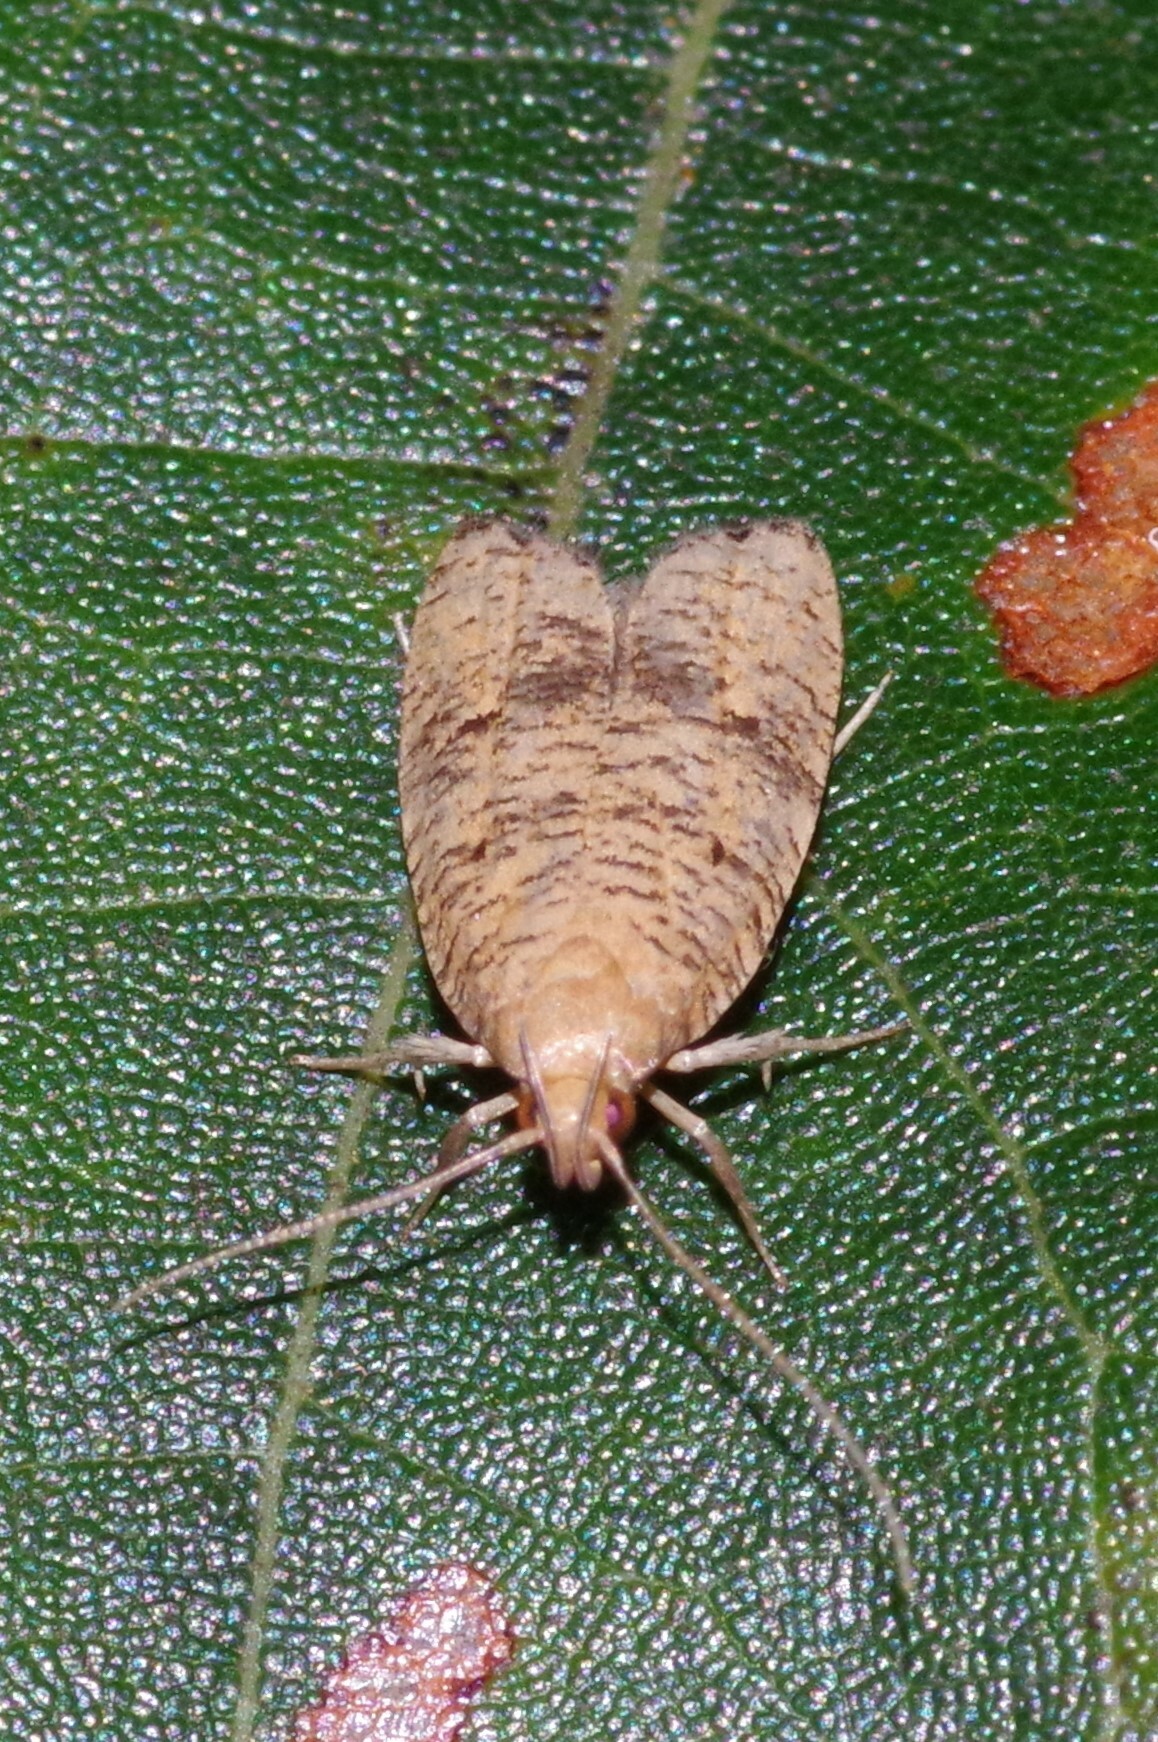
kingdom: Animalia
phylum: Arthropoda
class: Insecta
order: Lepidoptera
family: Depressariidae
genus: Psilocorsis
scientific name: Psilocorsis quercicella
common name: Oak leaftier moth
